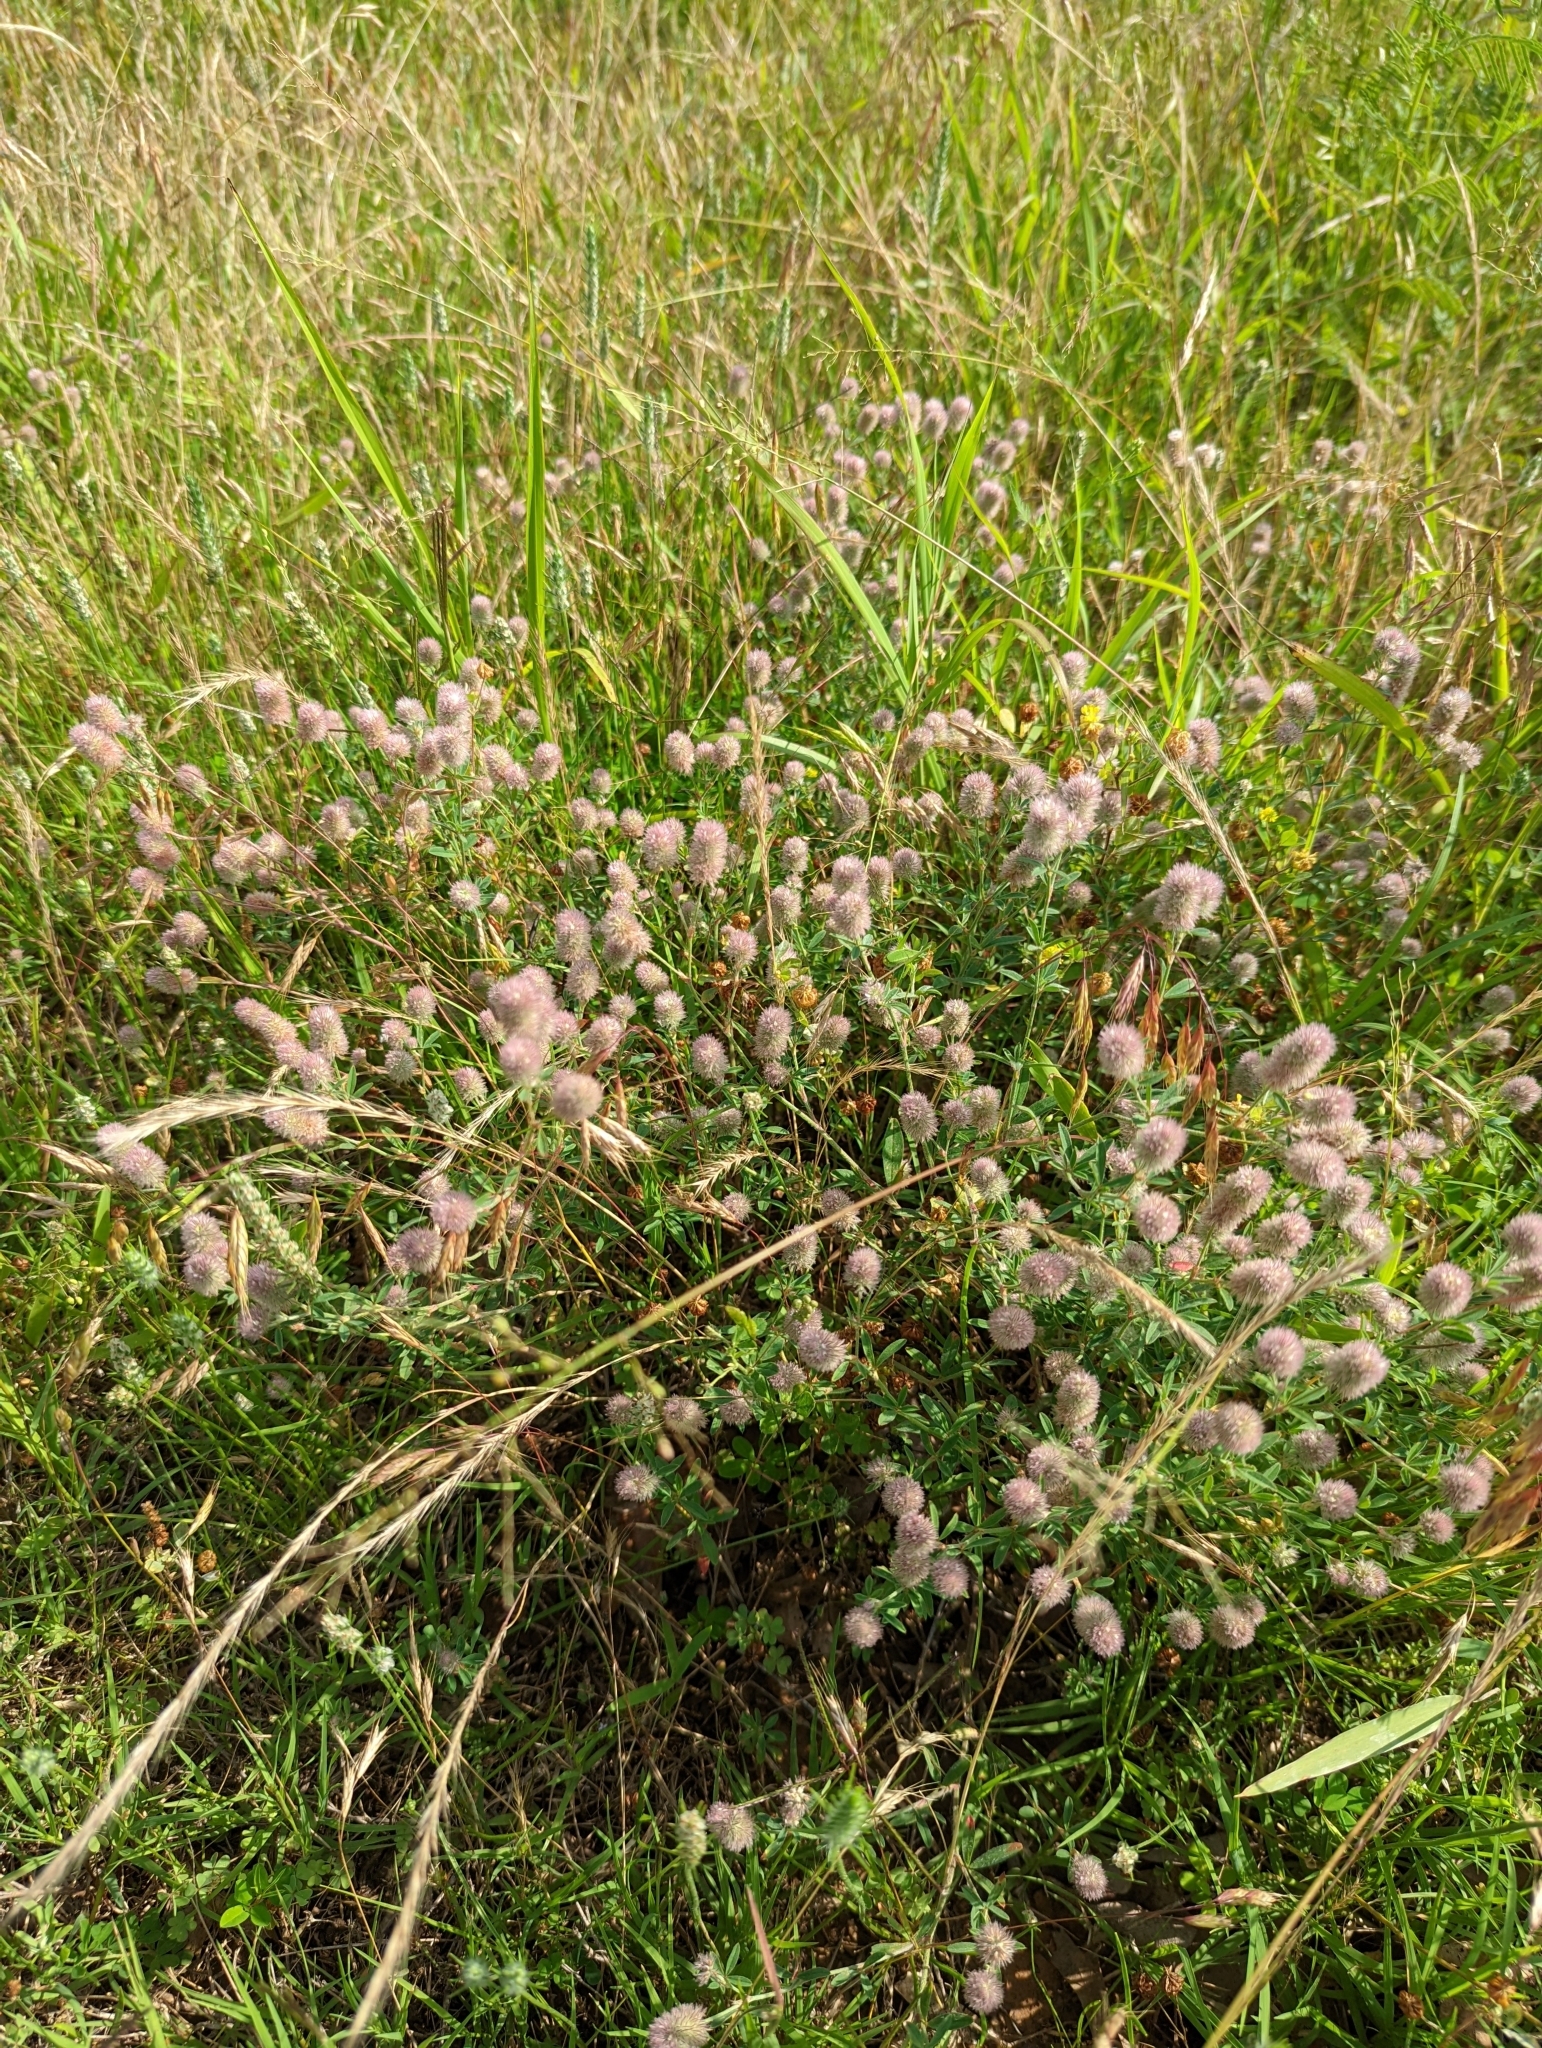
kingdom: Plantae
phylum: Tracheophyta
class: Magnoliopsida
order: Fabales
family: Fabaceae
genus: Trifolium
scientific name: Trifolium arvense
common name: Hare's-foot clover
